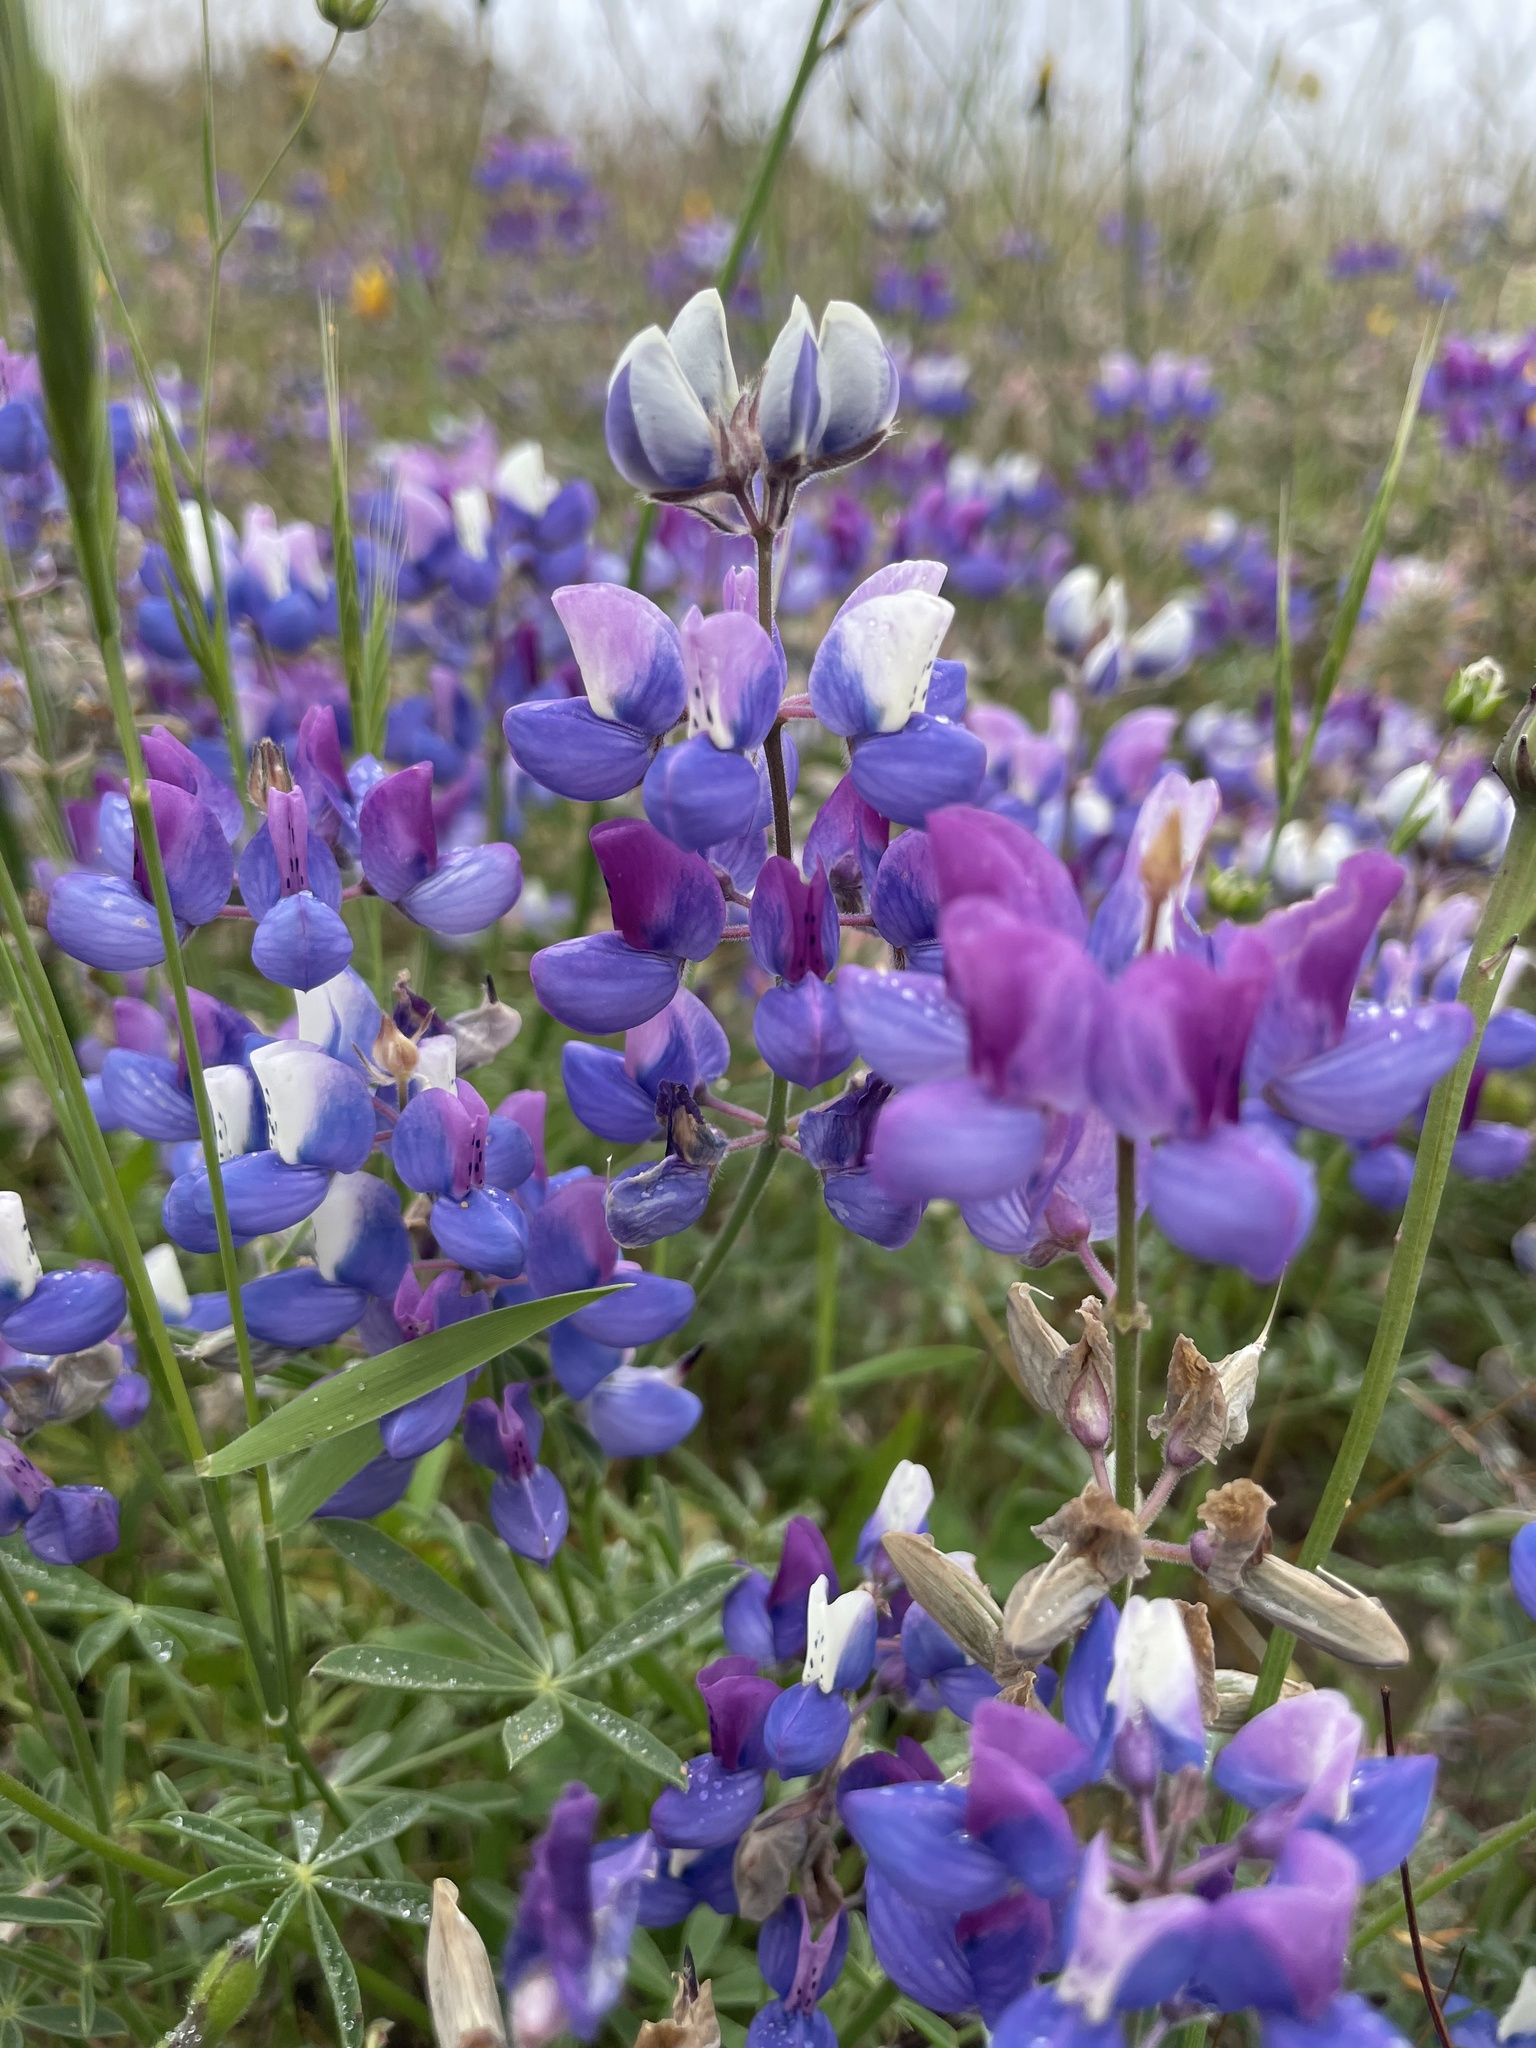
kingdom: Plantae
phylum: Tracheophyta
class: Magnoliopsida
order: Fabales
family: Fabaceae
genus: Lupinus
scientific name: Lupinus nanus
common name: Orean blue lupin
